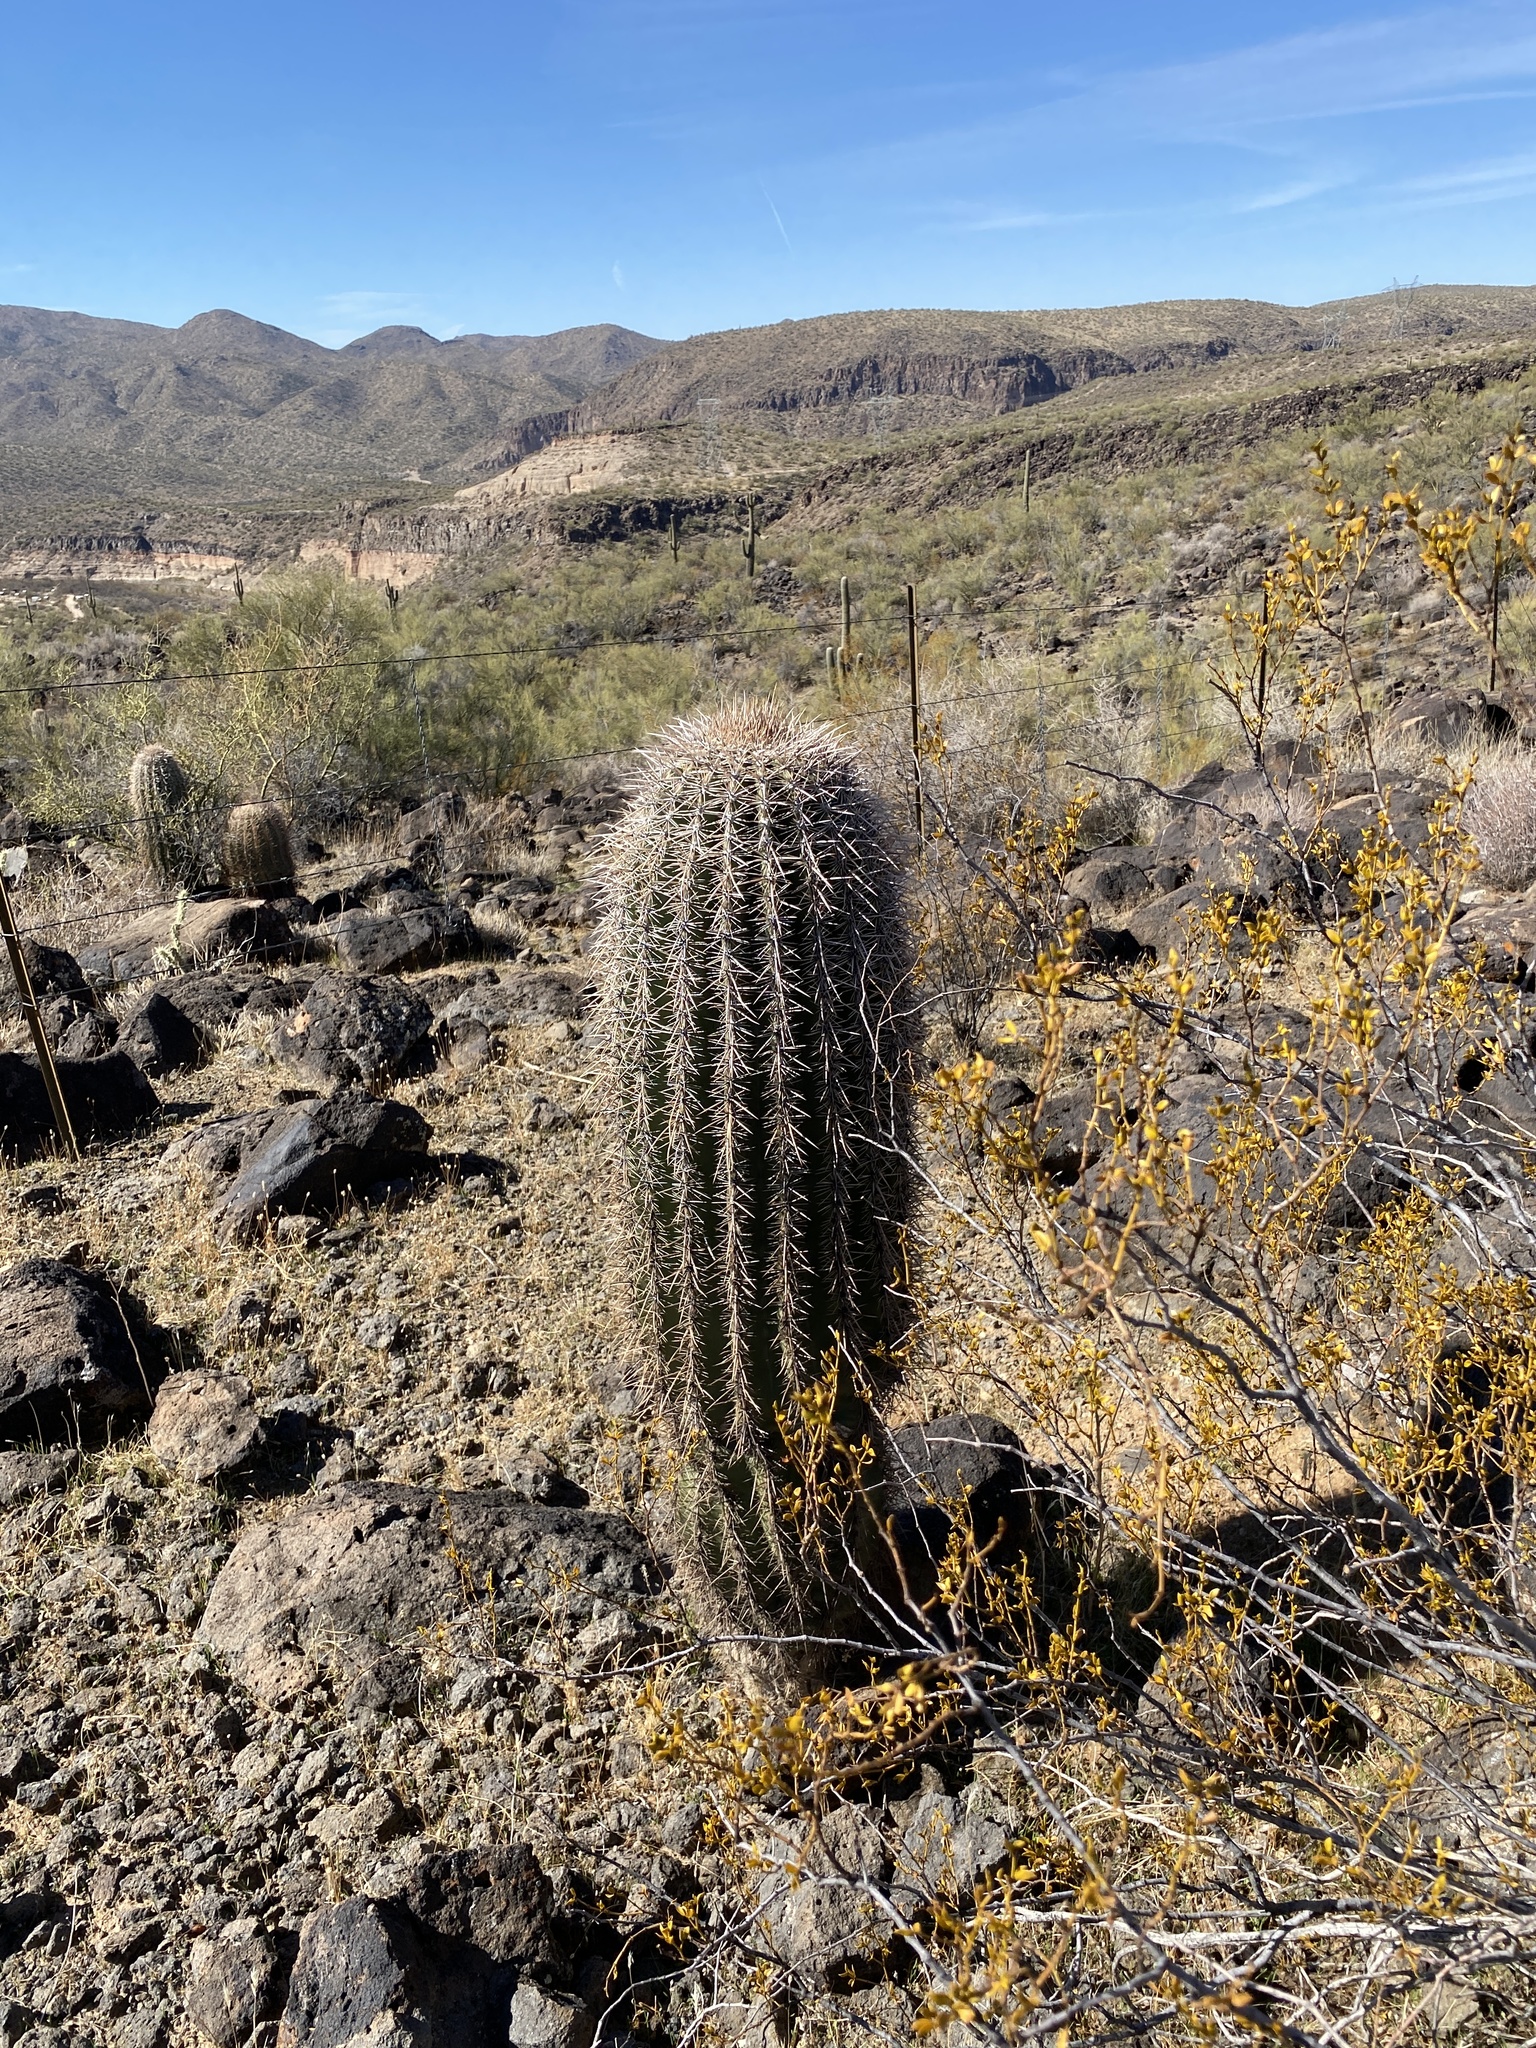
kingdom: Plantae
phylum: Tracheophyta
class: Magnoliopsida
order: Caryophyllales
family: Cactaceae
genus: Carnegiea
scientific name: Carnegiea gigantea
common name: Saguaro
